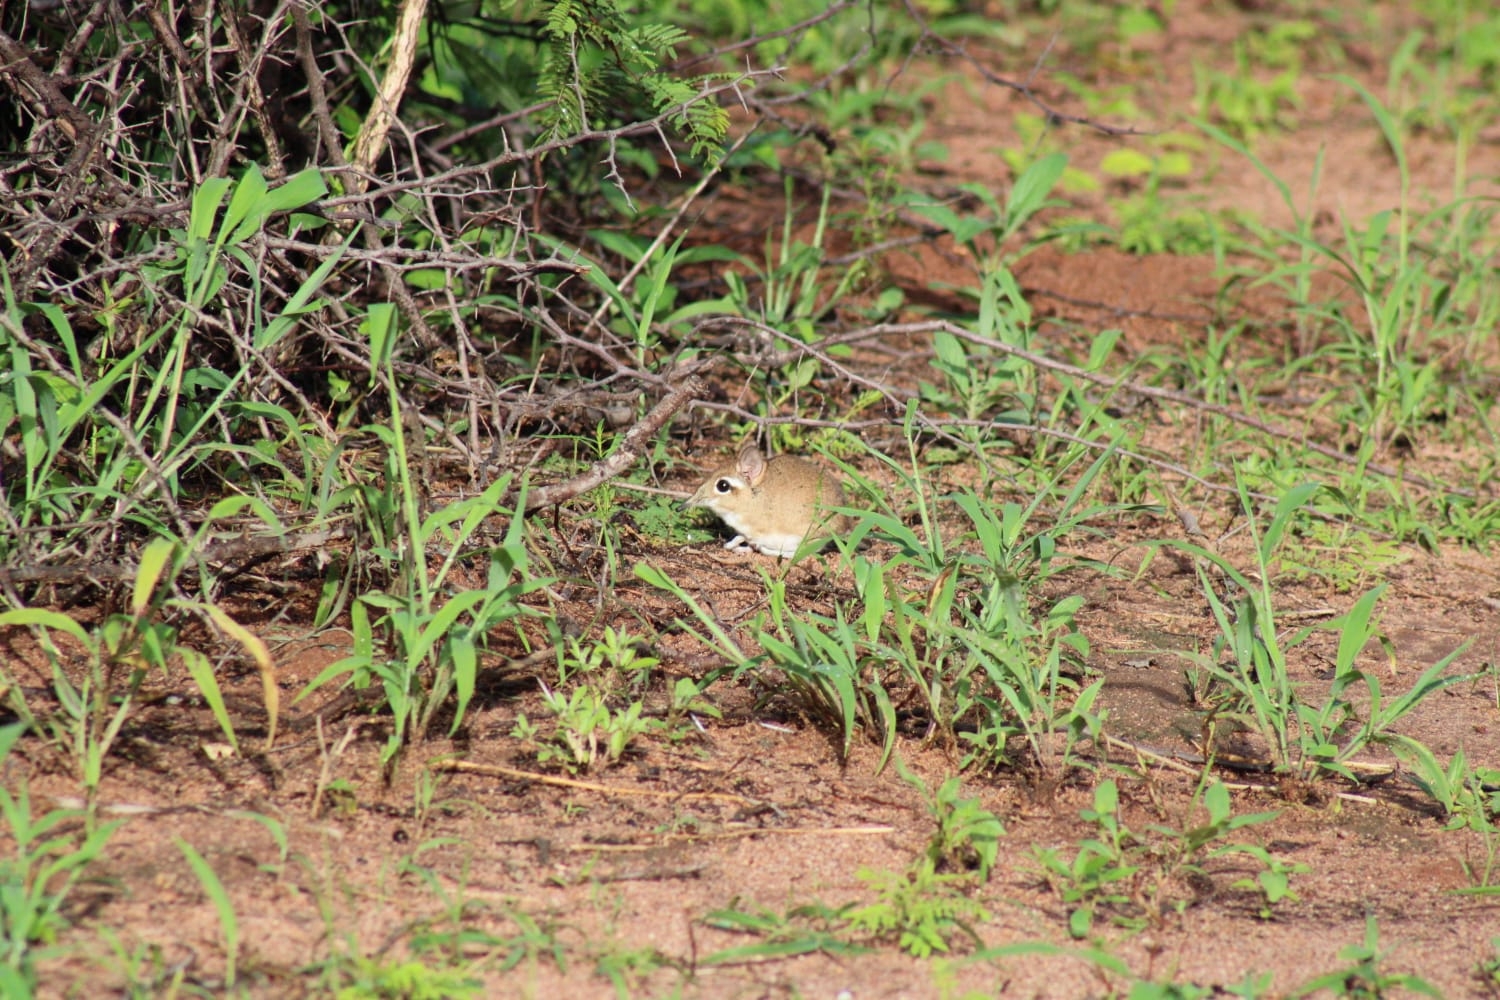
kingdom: Animalia
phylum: Chordata
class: Mammalia
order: Macroscelidea
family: Macroscelididae
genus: Galegeeska
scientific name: Galegeeska
